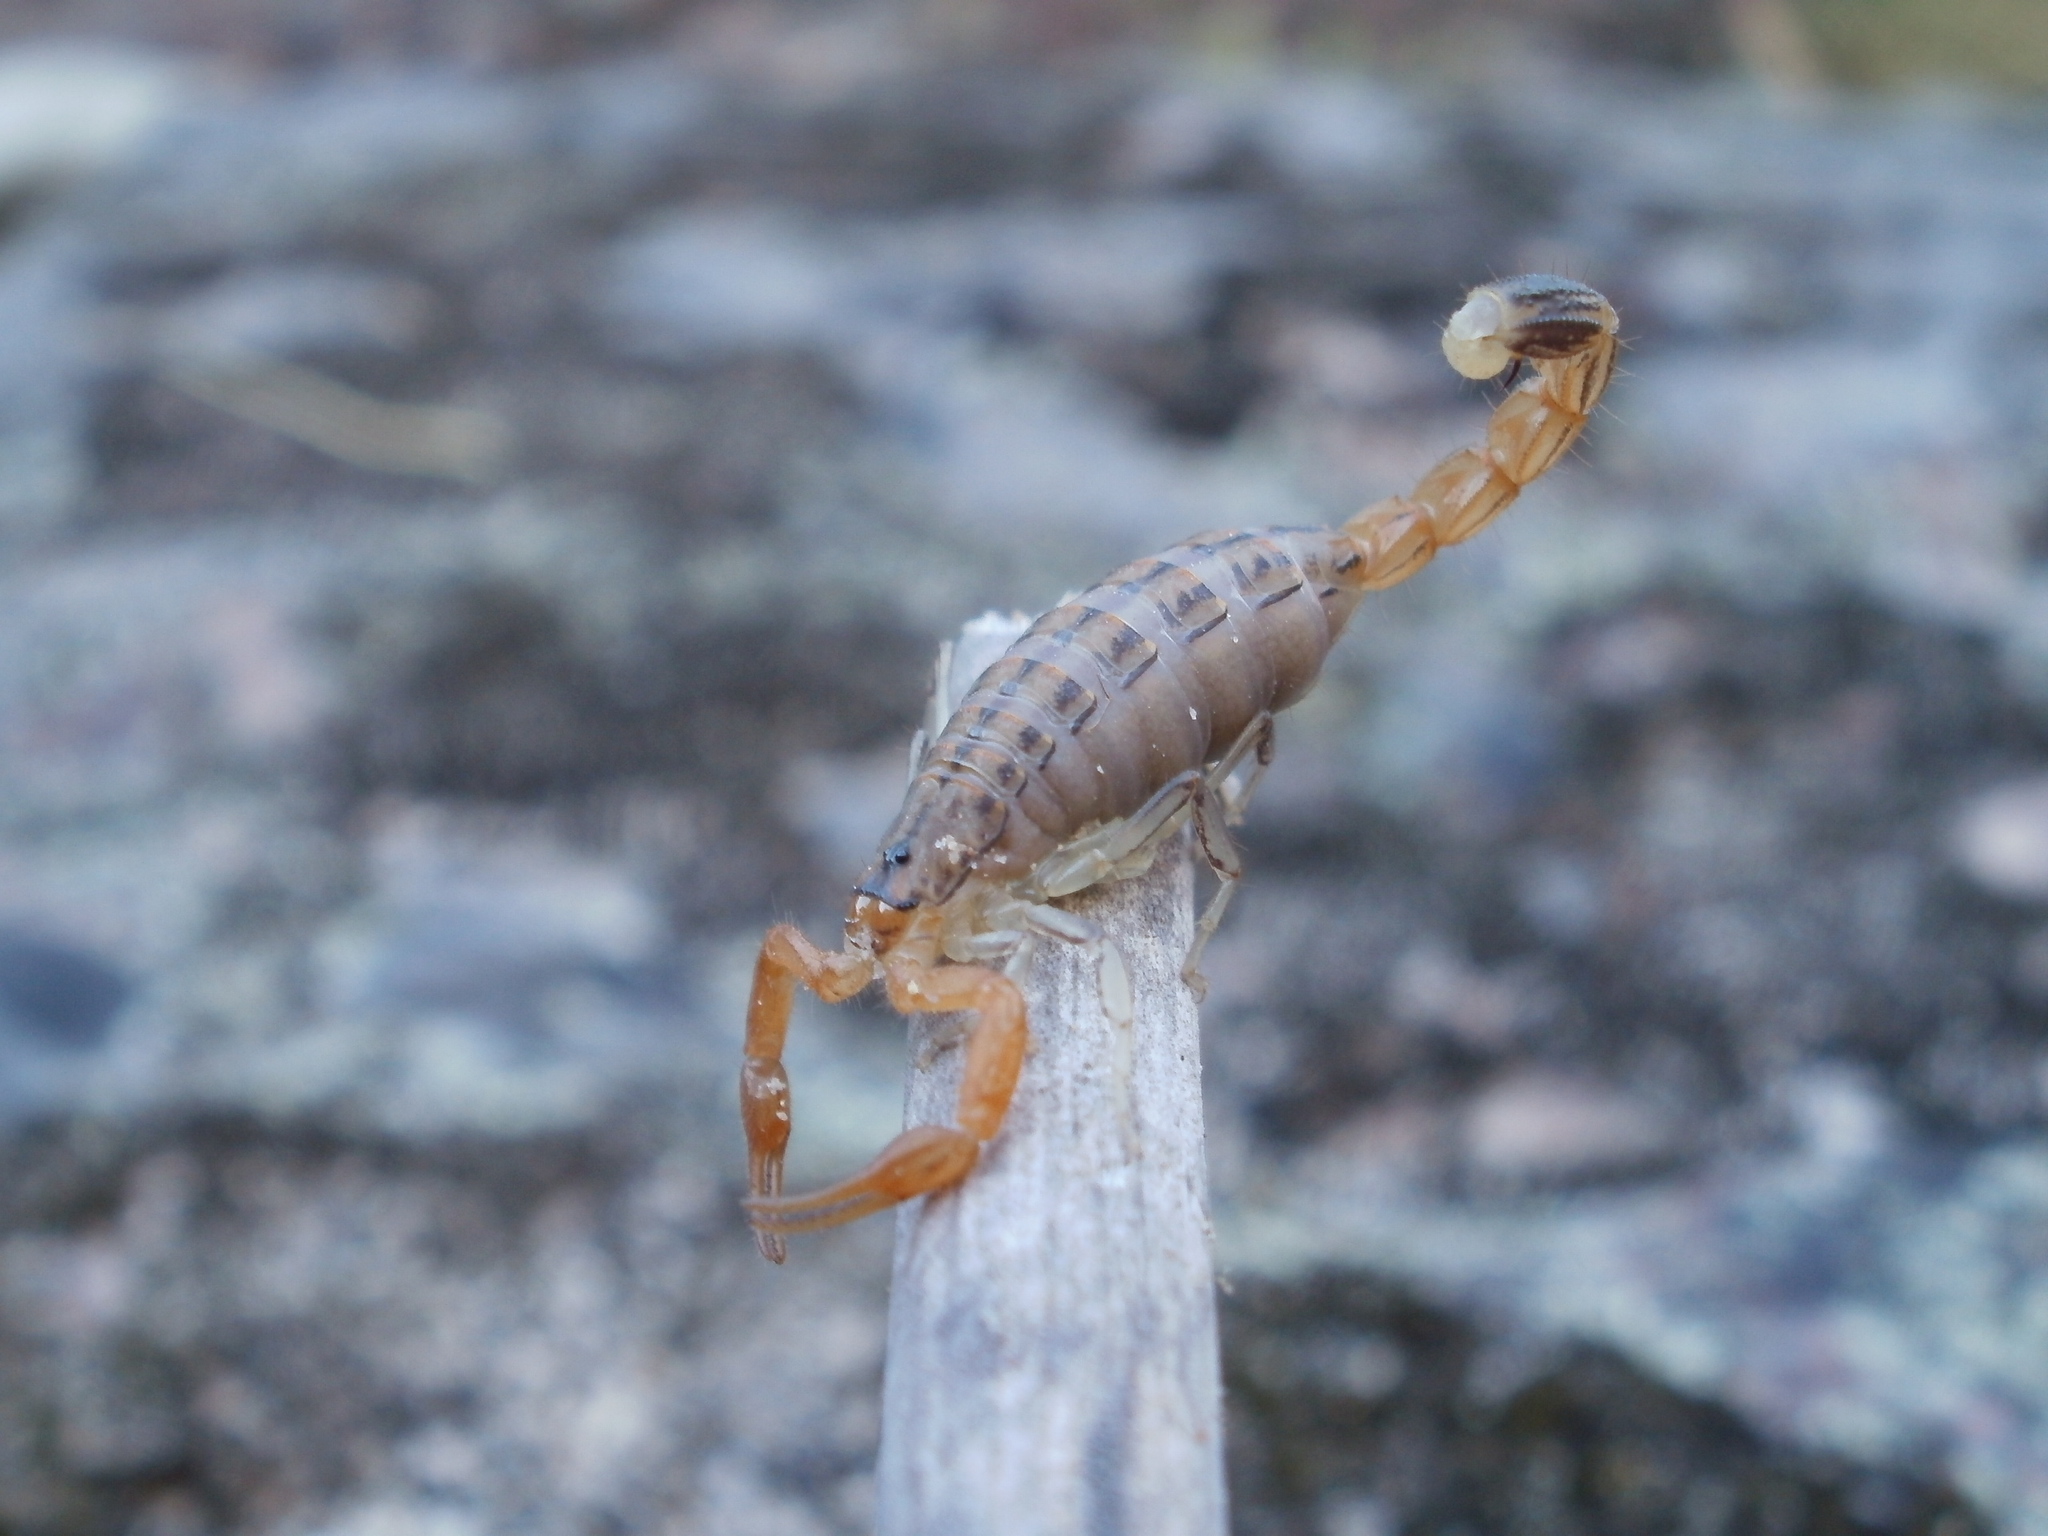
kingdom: Animalia
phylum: Arthropoda
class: Arachnida
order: Scorpiones
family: Buthidae
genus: Uroplectes
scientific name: Uroplectes carinatus
